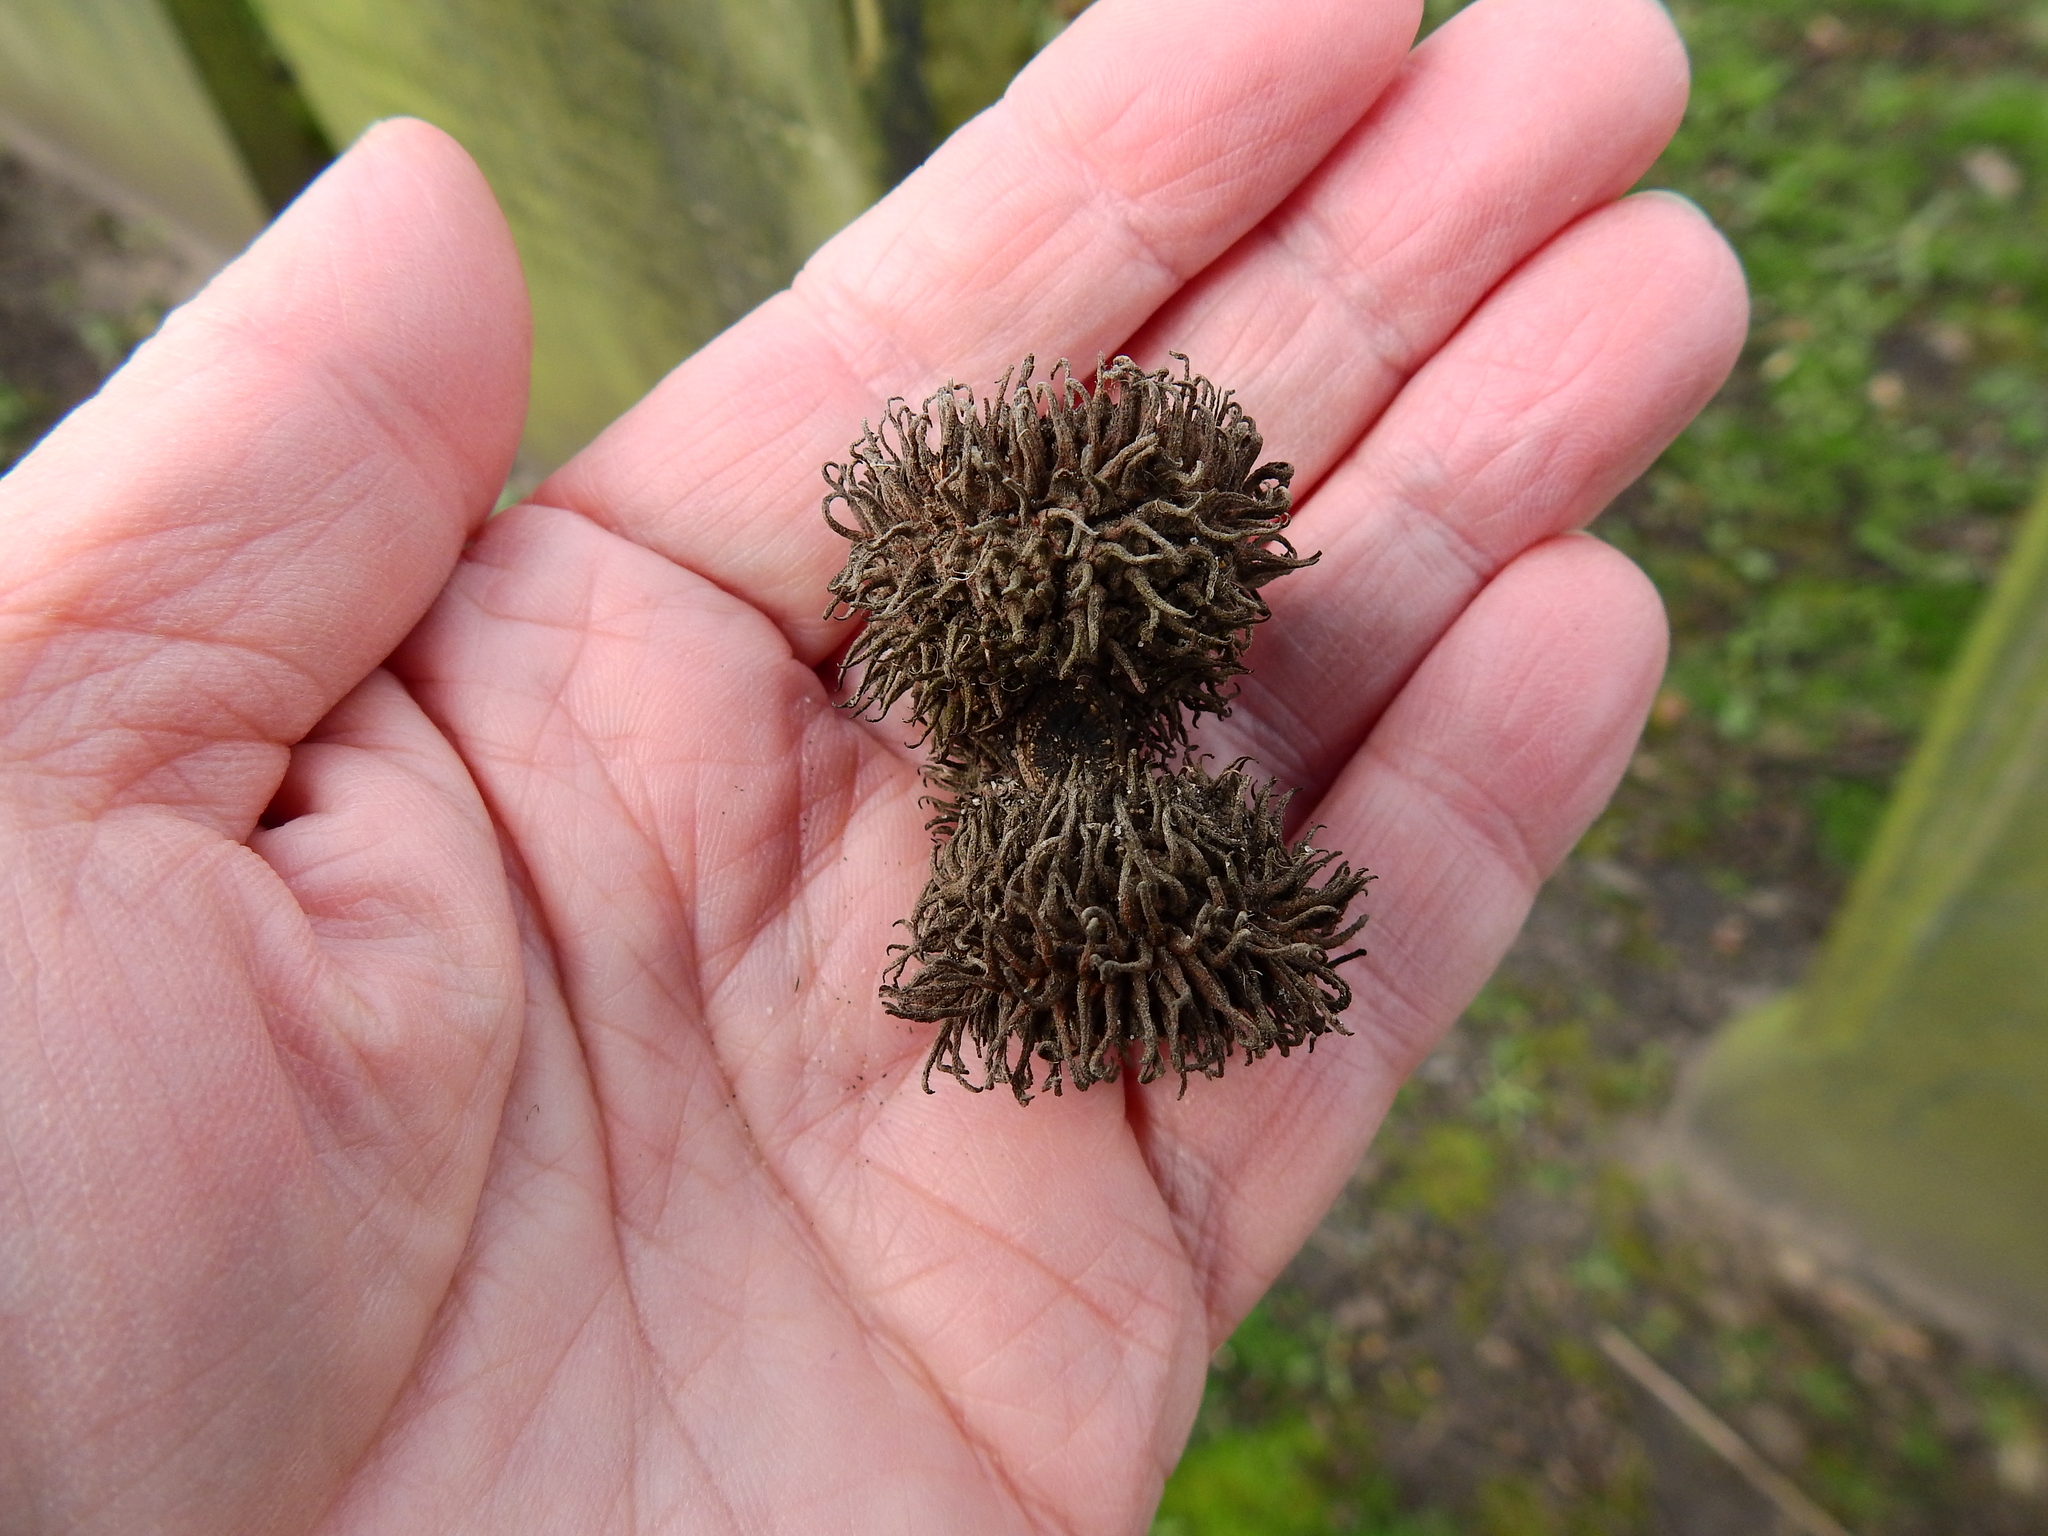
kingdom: Plantae
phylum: Tracheophyta
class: Magnoliopsida
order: Fagales
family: Fagaceae
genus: Quercus
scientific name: Quercus cerris
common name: Turkey oak
